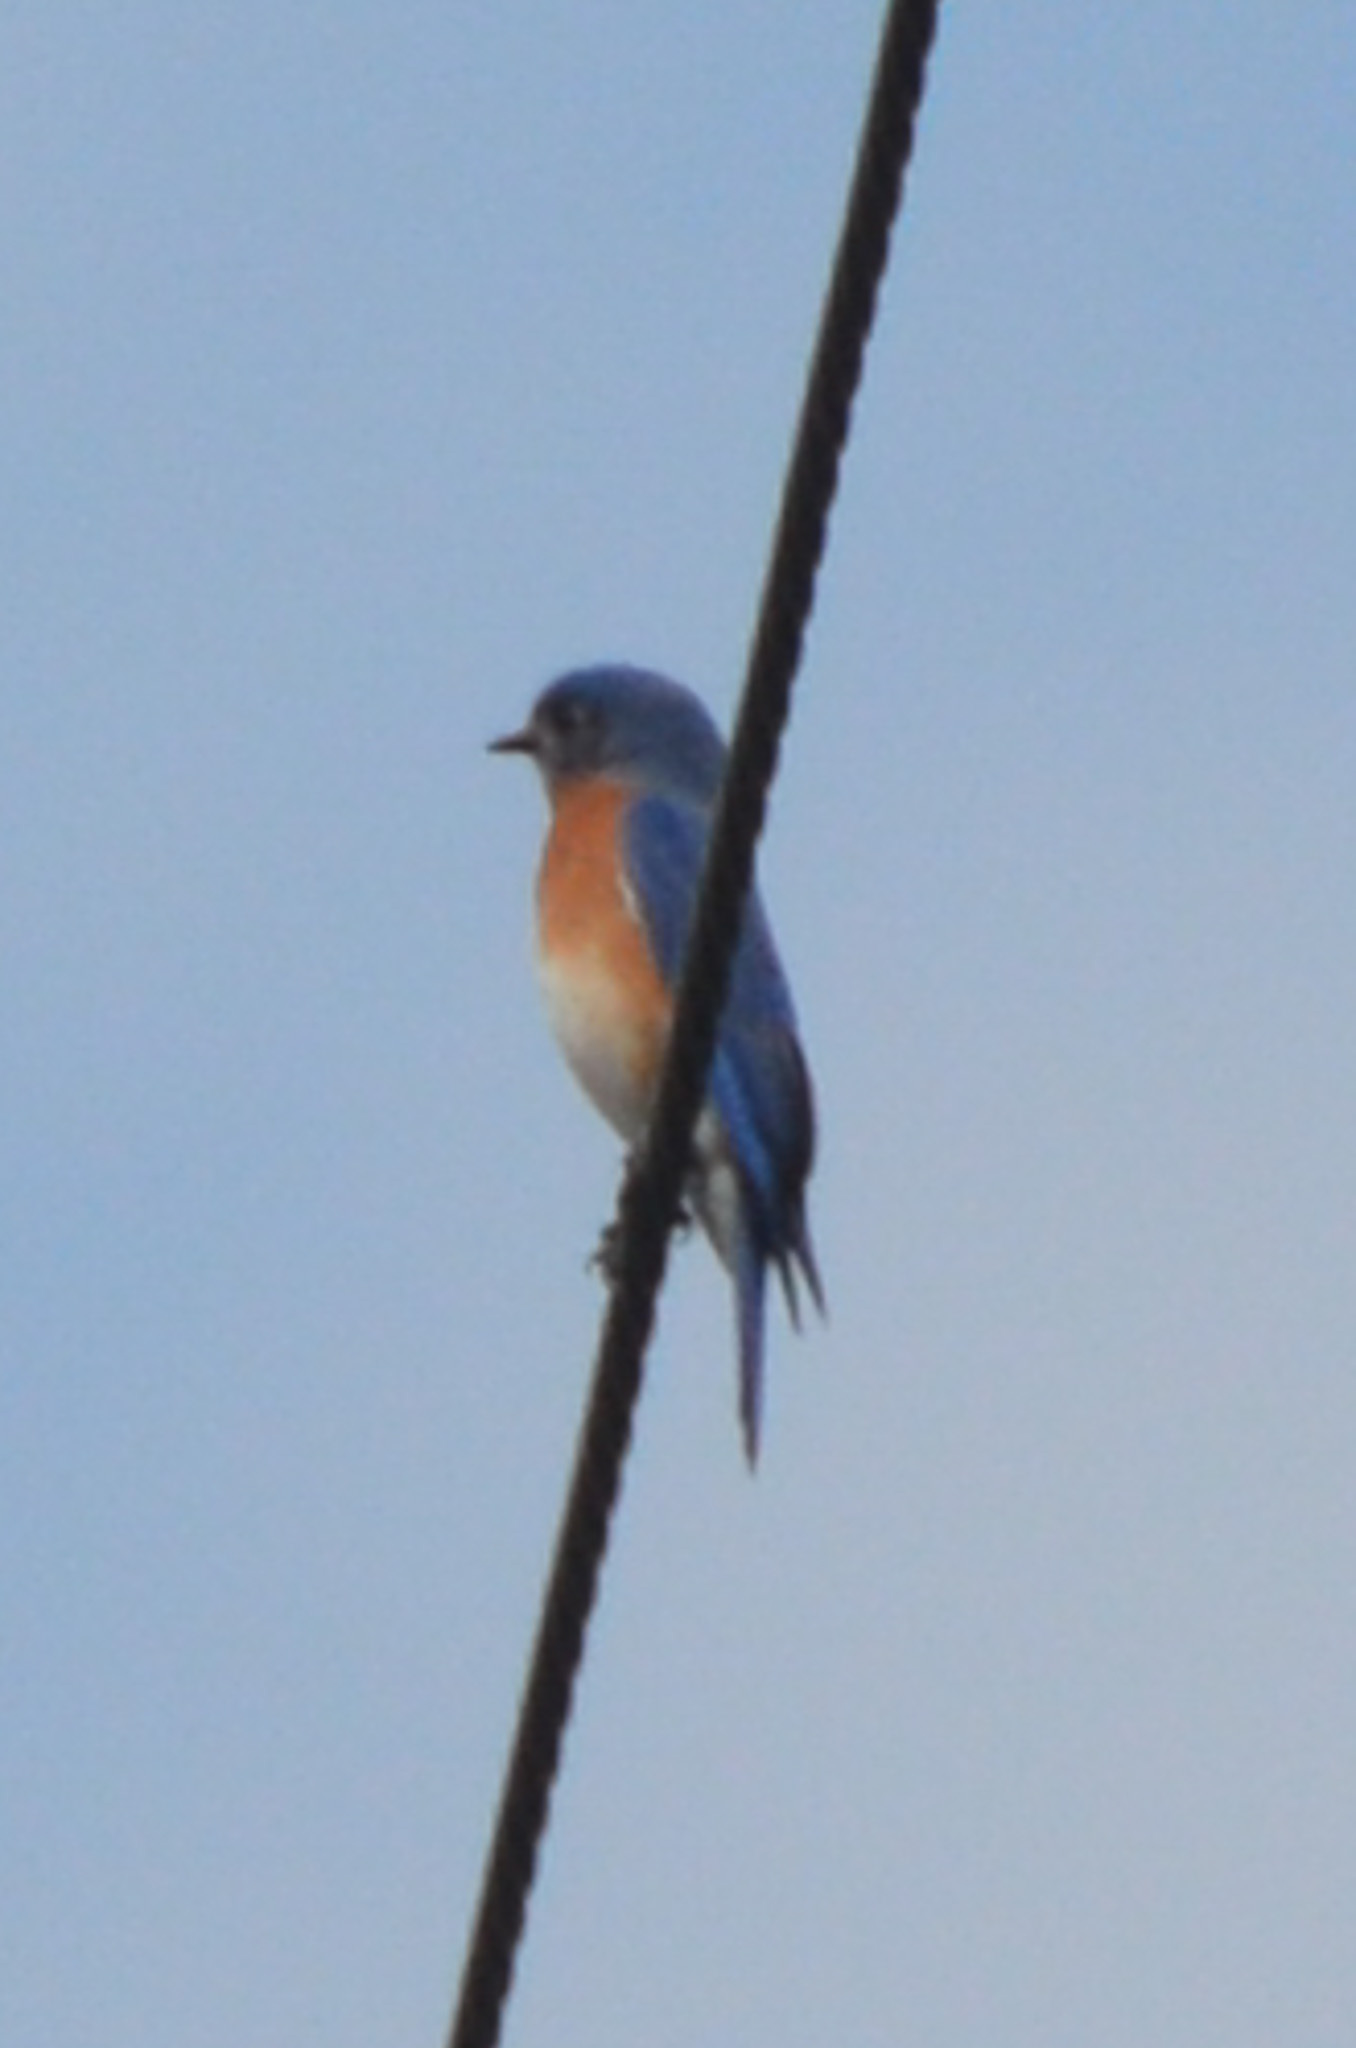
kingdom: Animalia
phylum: Chordata
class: Aves
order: Passeriformes
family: Turdidae
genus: Sialia
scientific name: Sialia sialis
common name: Eastern bluebird
